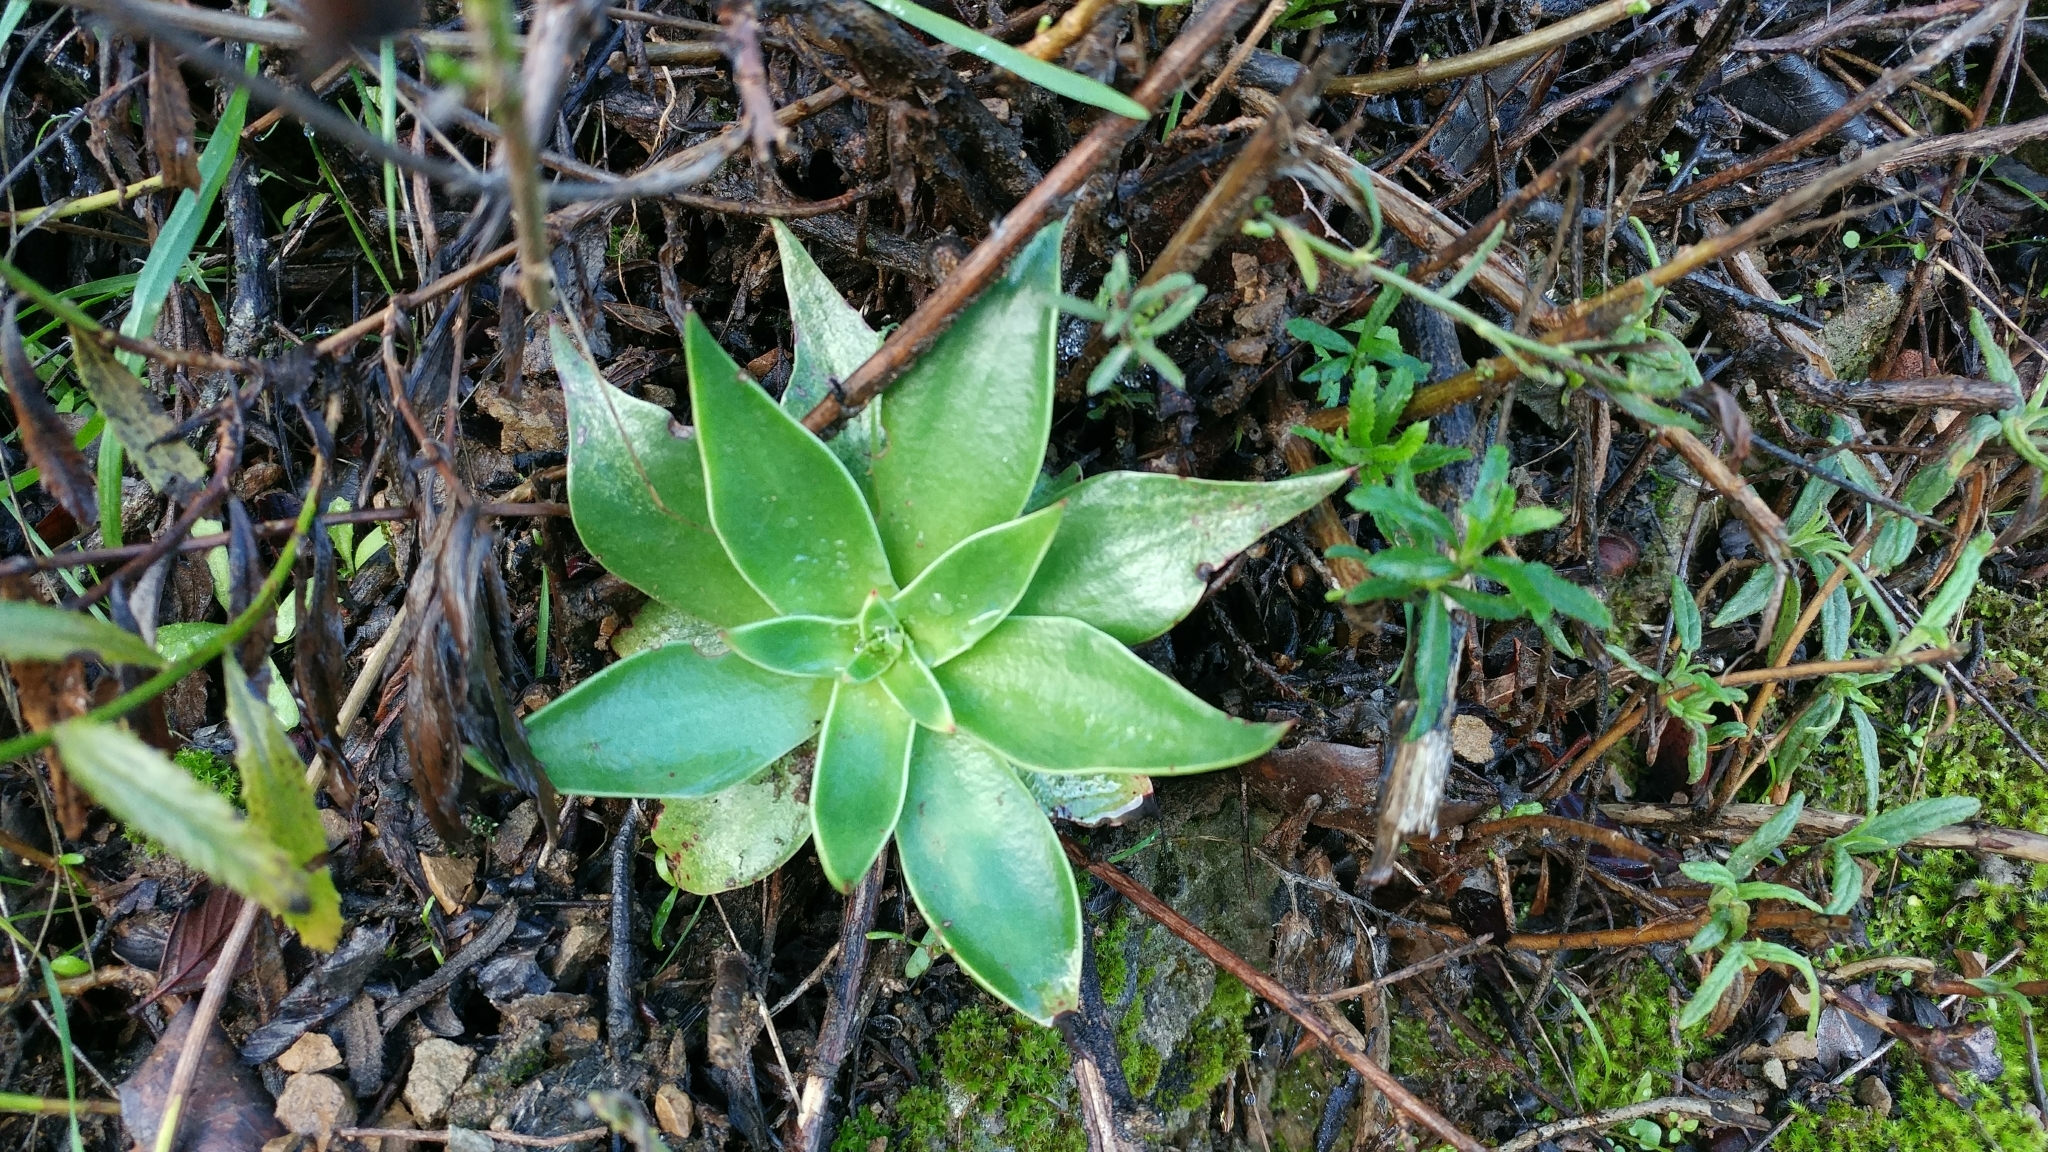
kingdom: Plantae
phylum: Tracheophyta
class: Magnoliopsida
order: Saxifragales
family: Crassulaceae
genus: Dudleya
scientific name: Dudleya lanceolata
